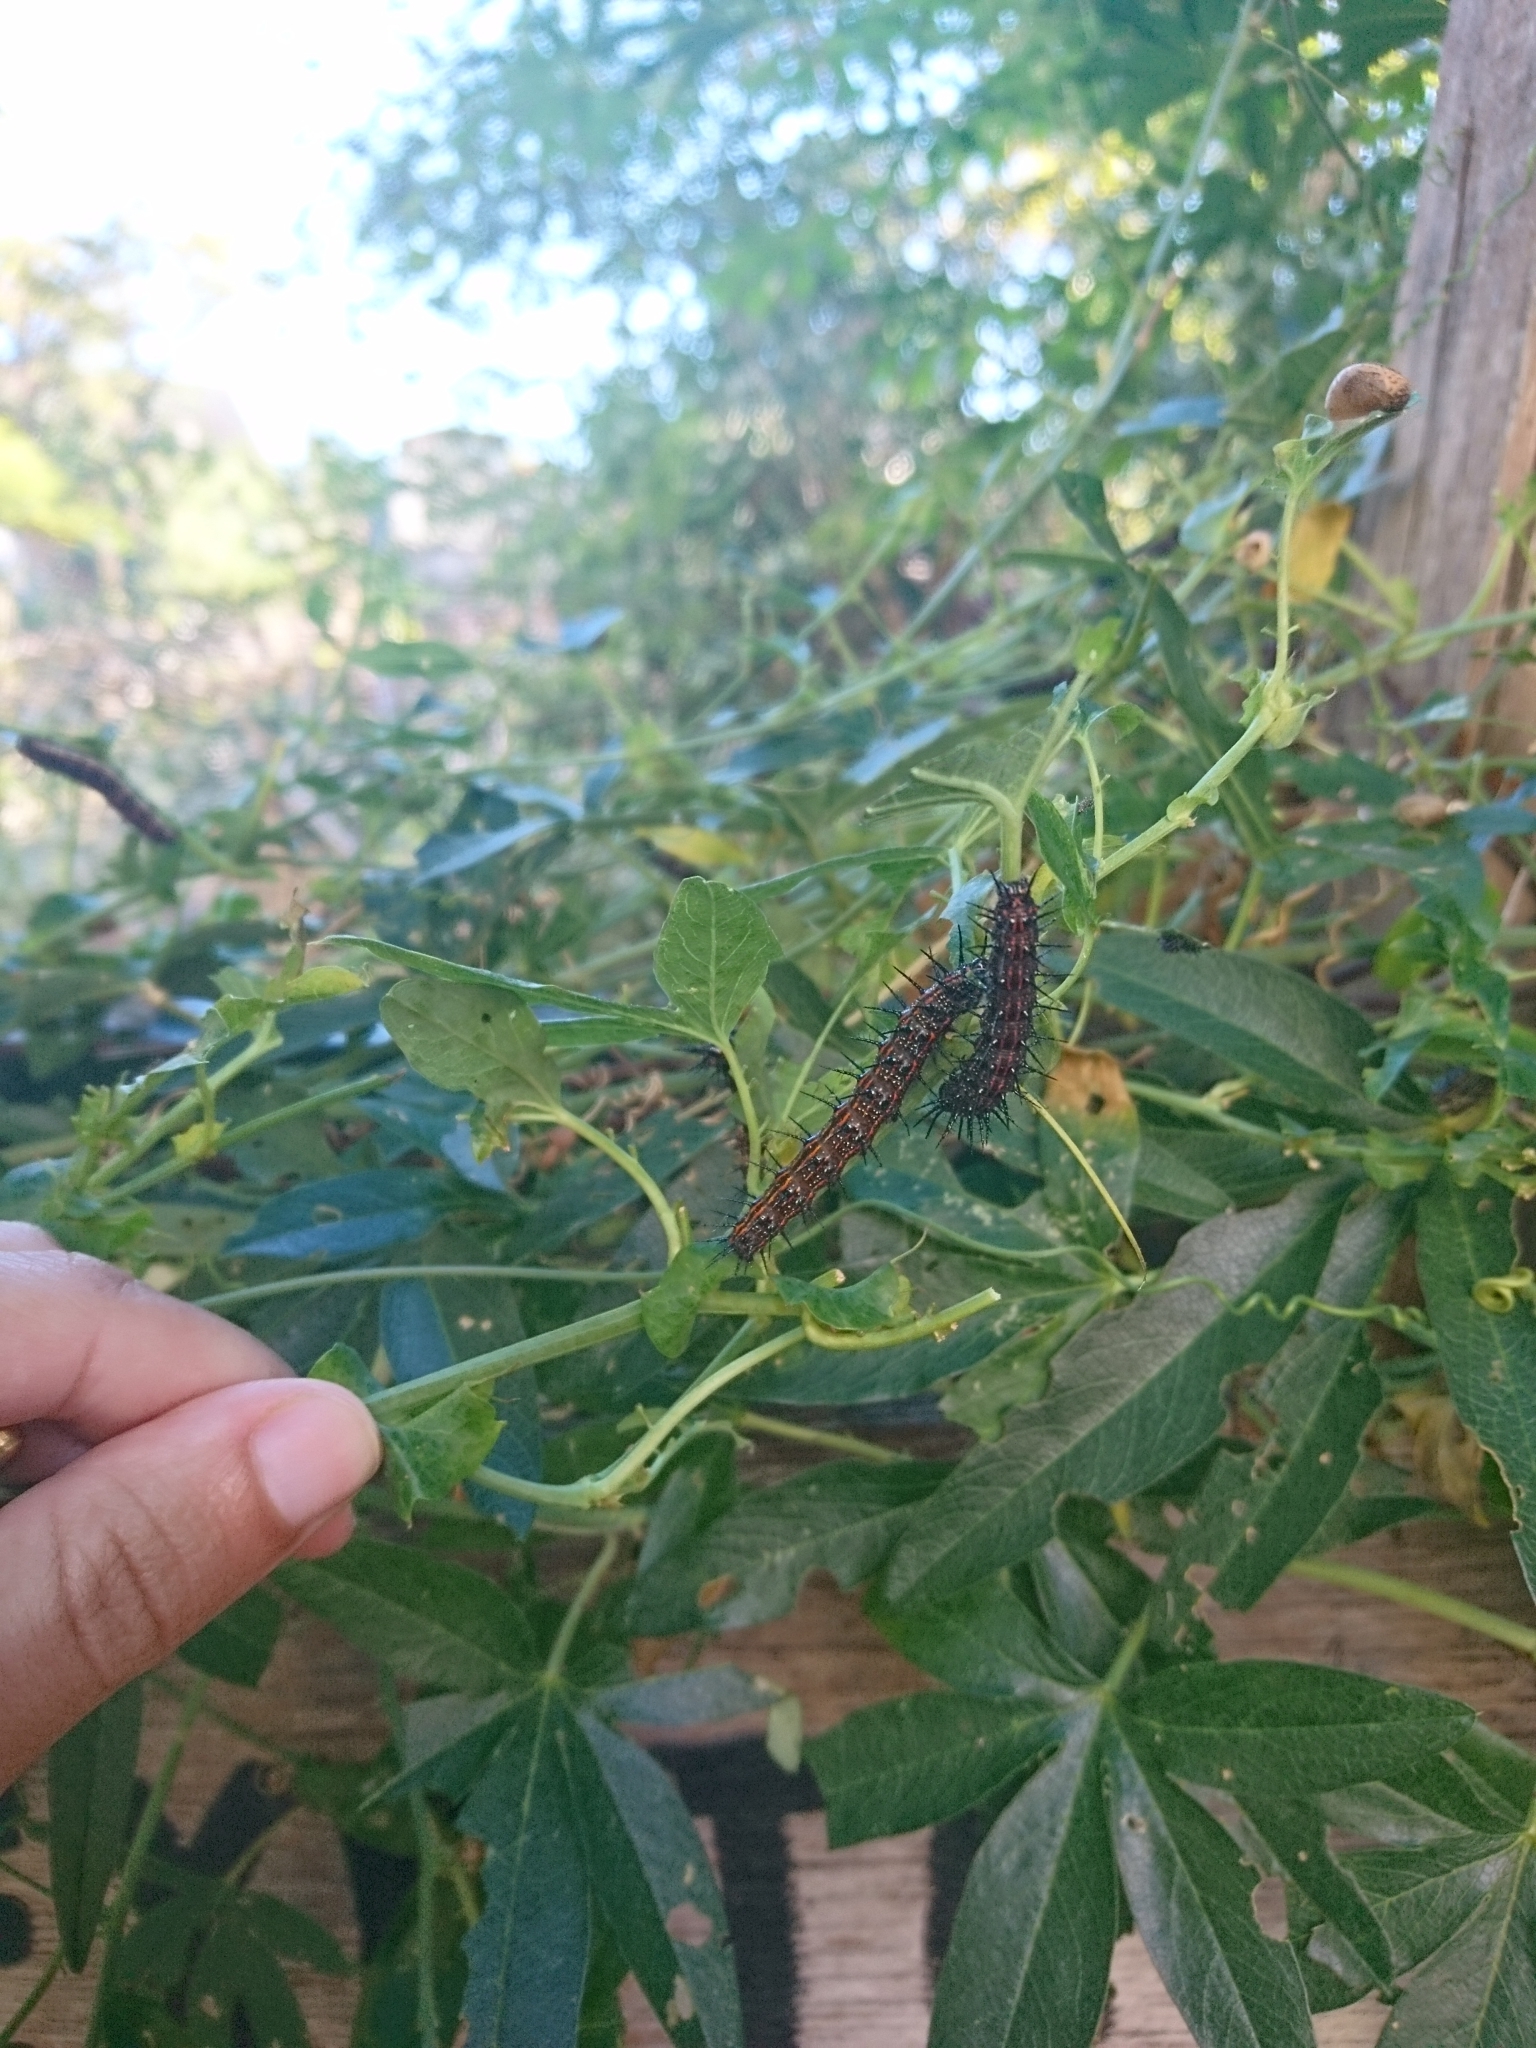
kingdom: Animalia
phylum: Arthropoda
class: Insecta
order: Lepidoptera
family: Nymphalidae
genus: Dione
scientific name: Dione vanillae
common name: Gulf fritillary
